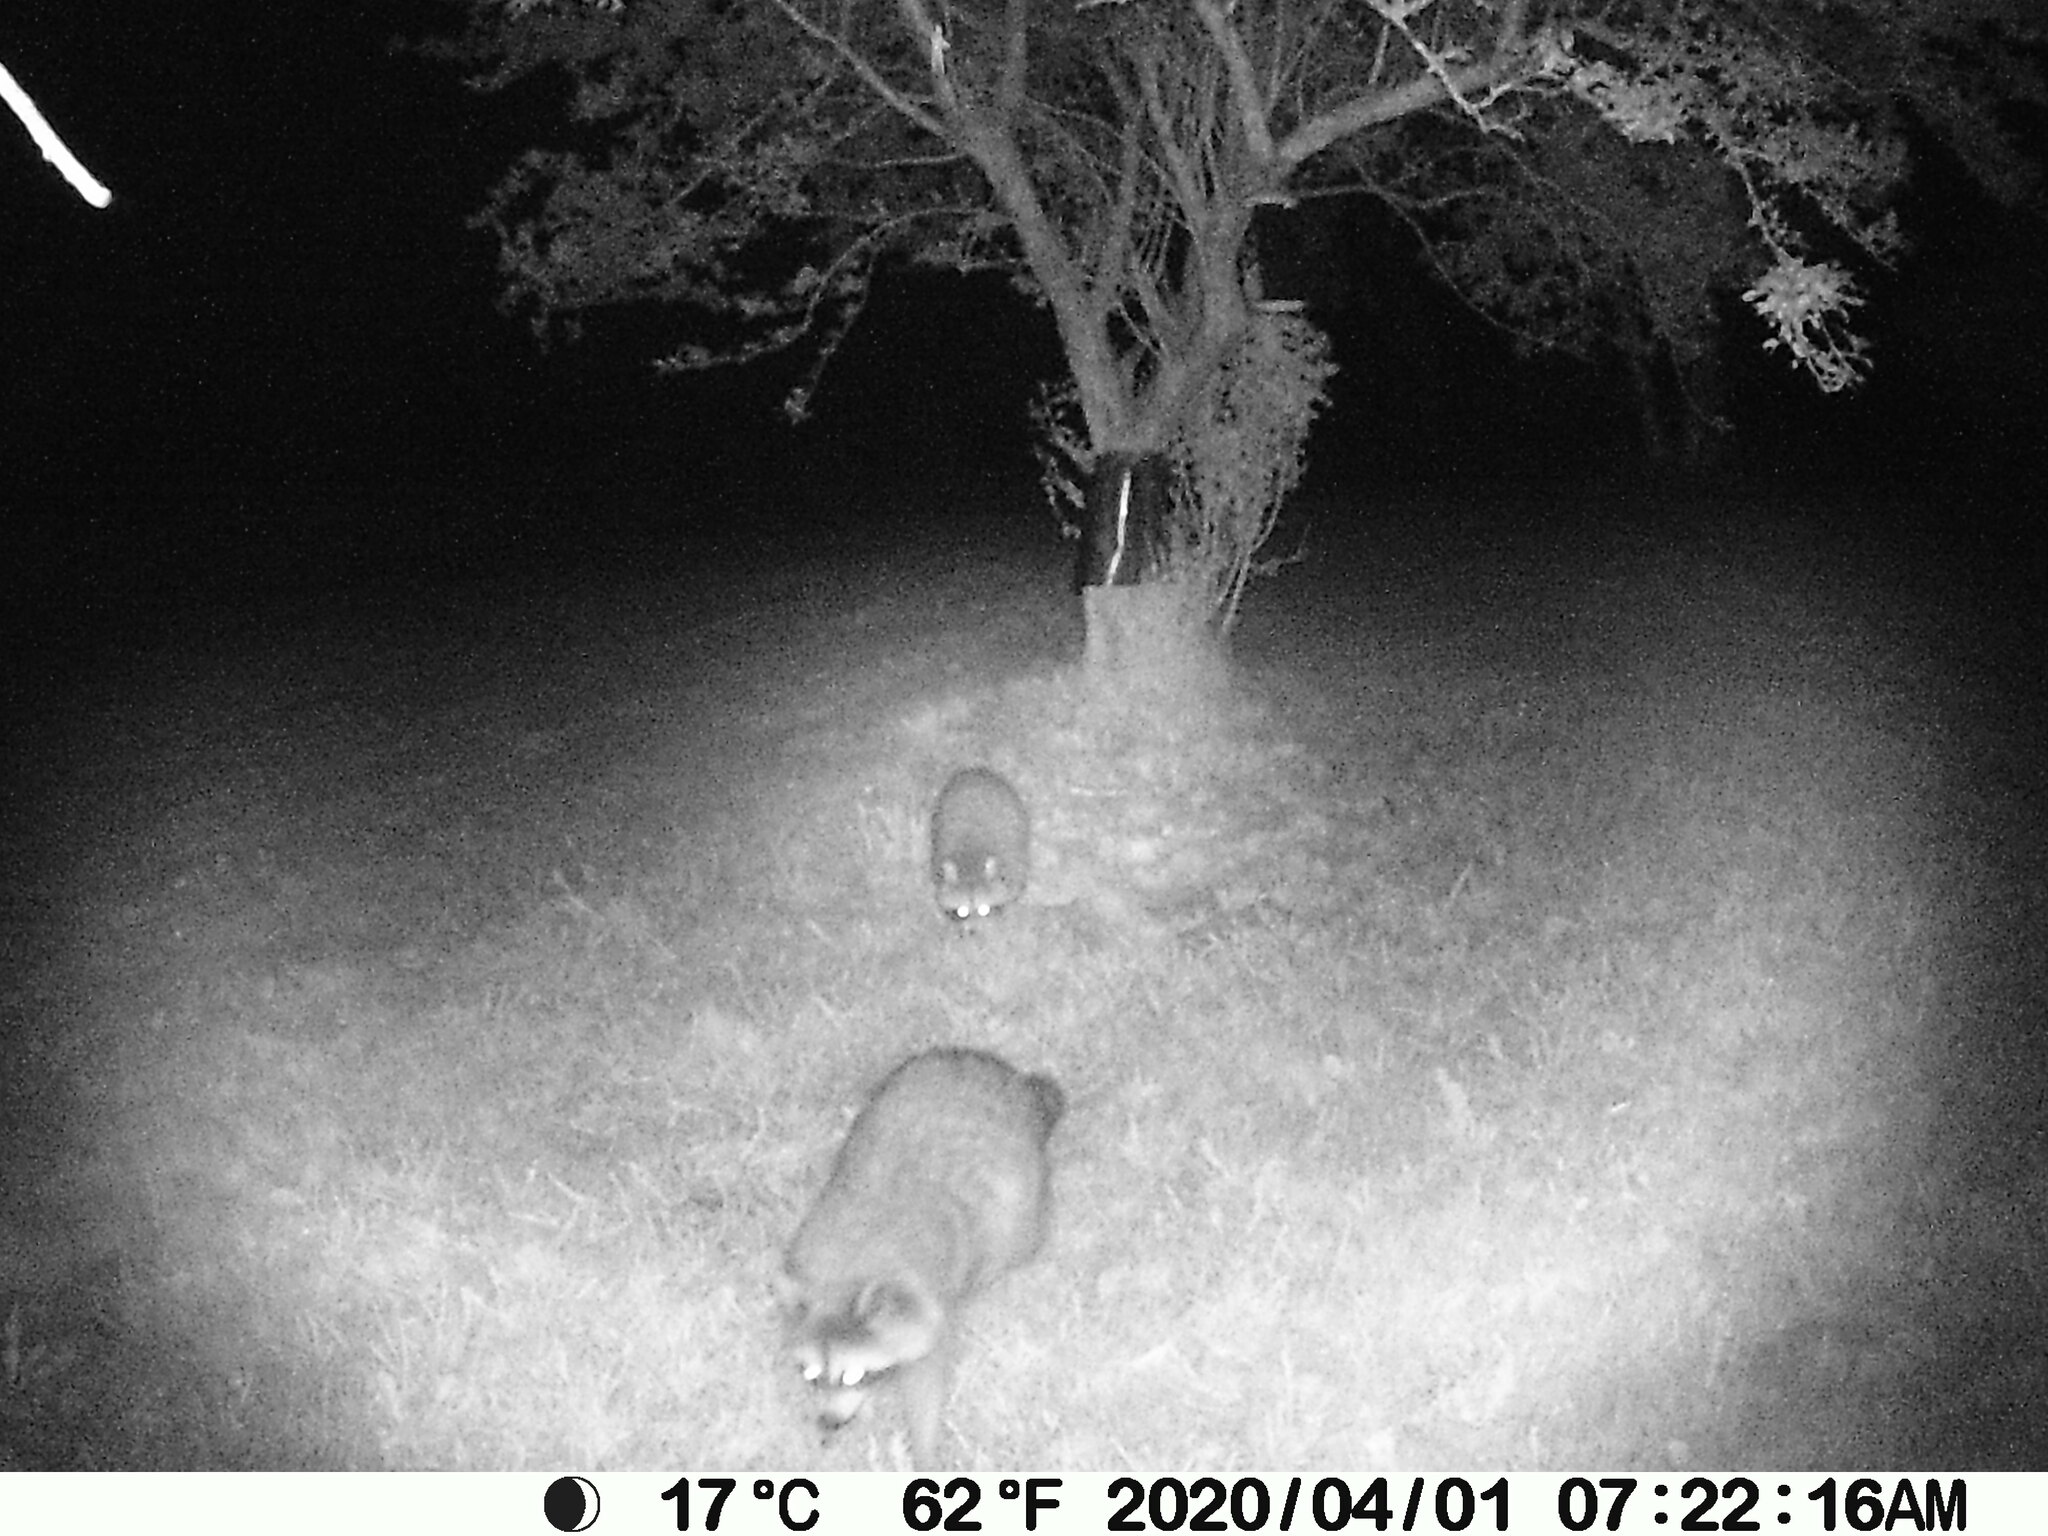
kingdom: Animalia
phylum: Chordata
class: Mammalia
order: Carnivora
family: Procyonidae
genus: Procyon
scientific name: Procyon lotor
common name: Raccoon
